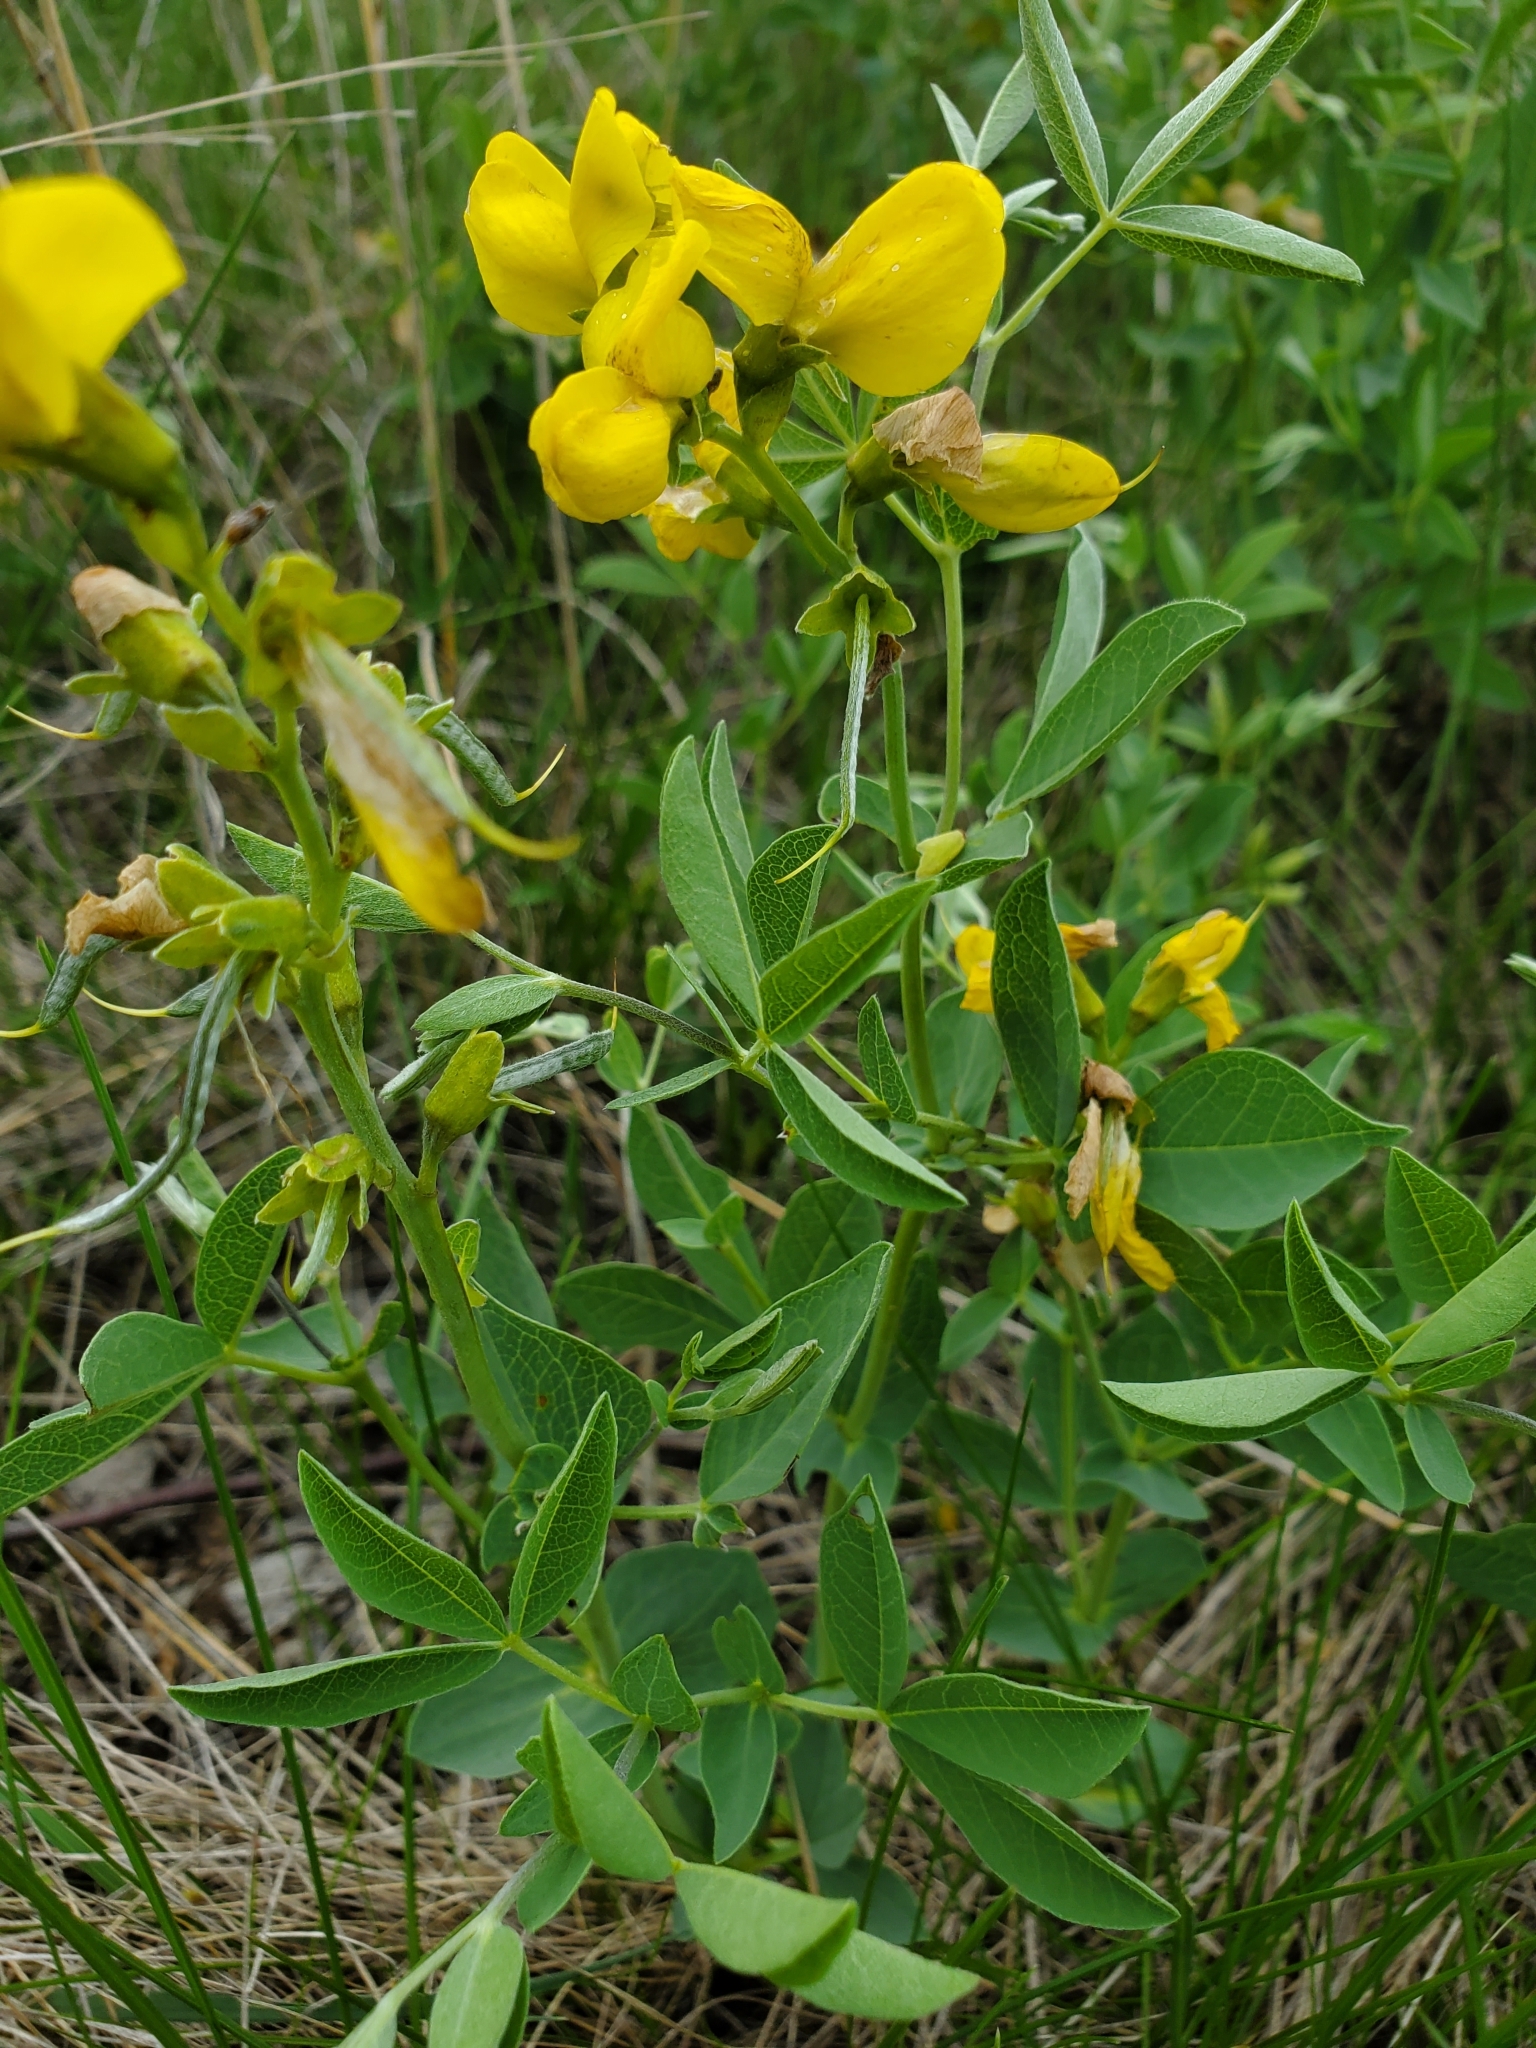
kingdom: Plantae
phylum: Tracheophyta
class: Magnoliopsida
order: Fabales
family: Fabaceae
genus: Thermopsis
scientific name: Thermopsis rhombifolia
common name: Circle-pod-pea
